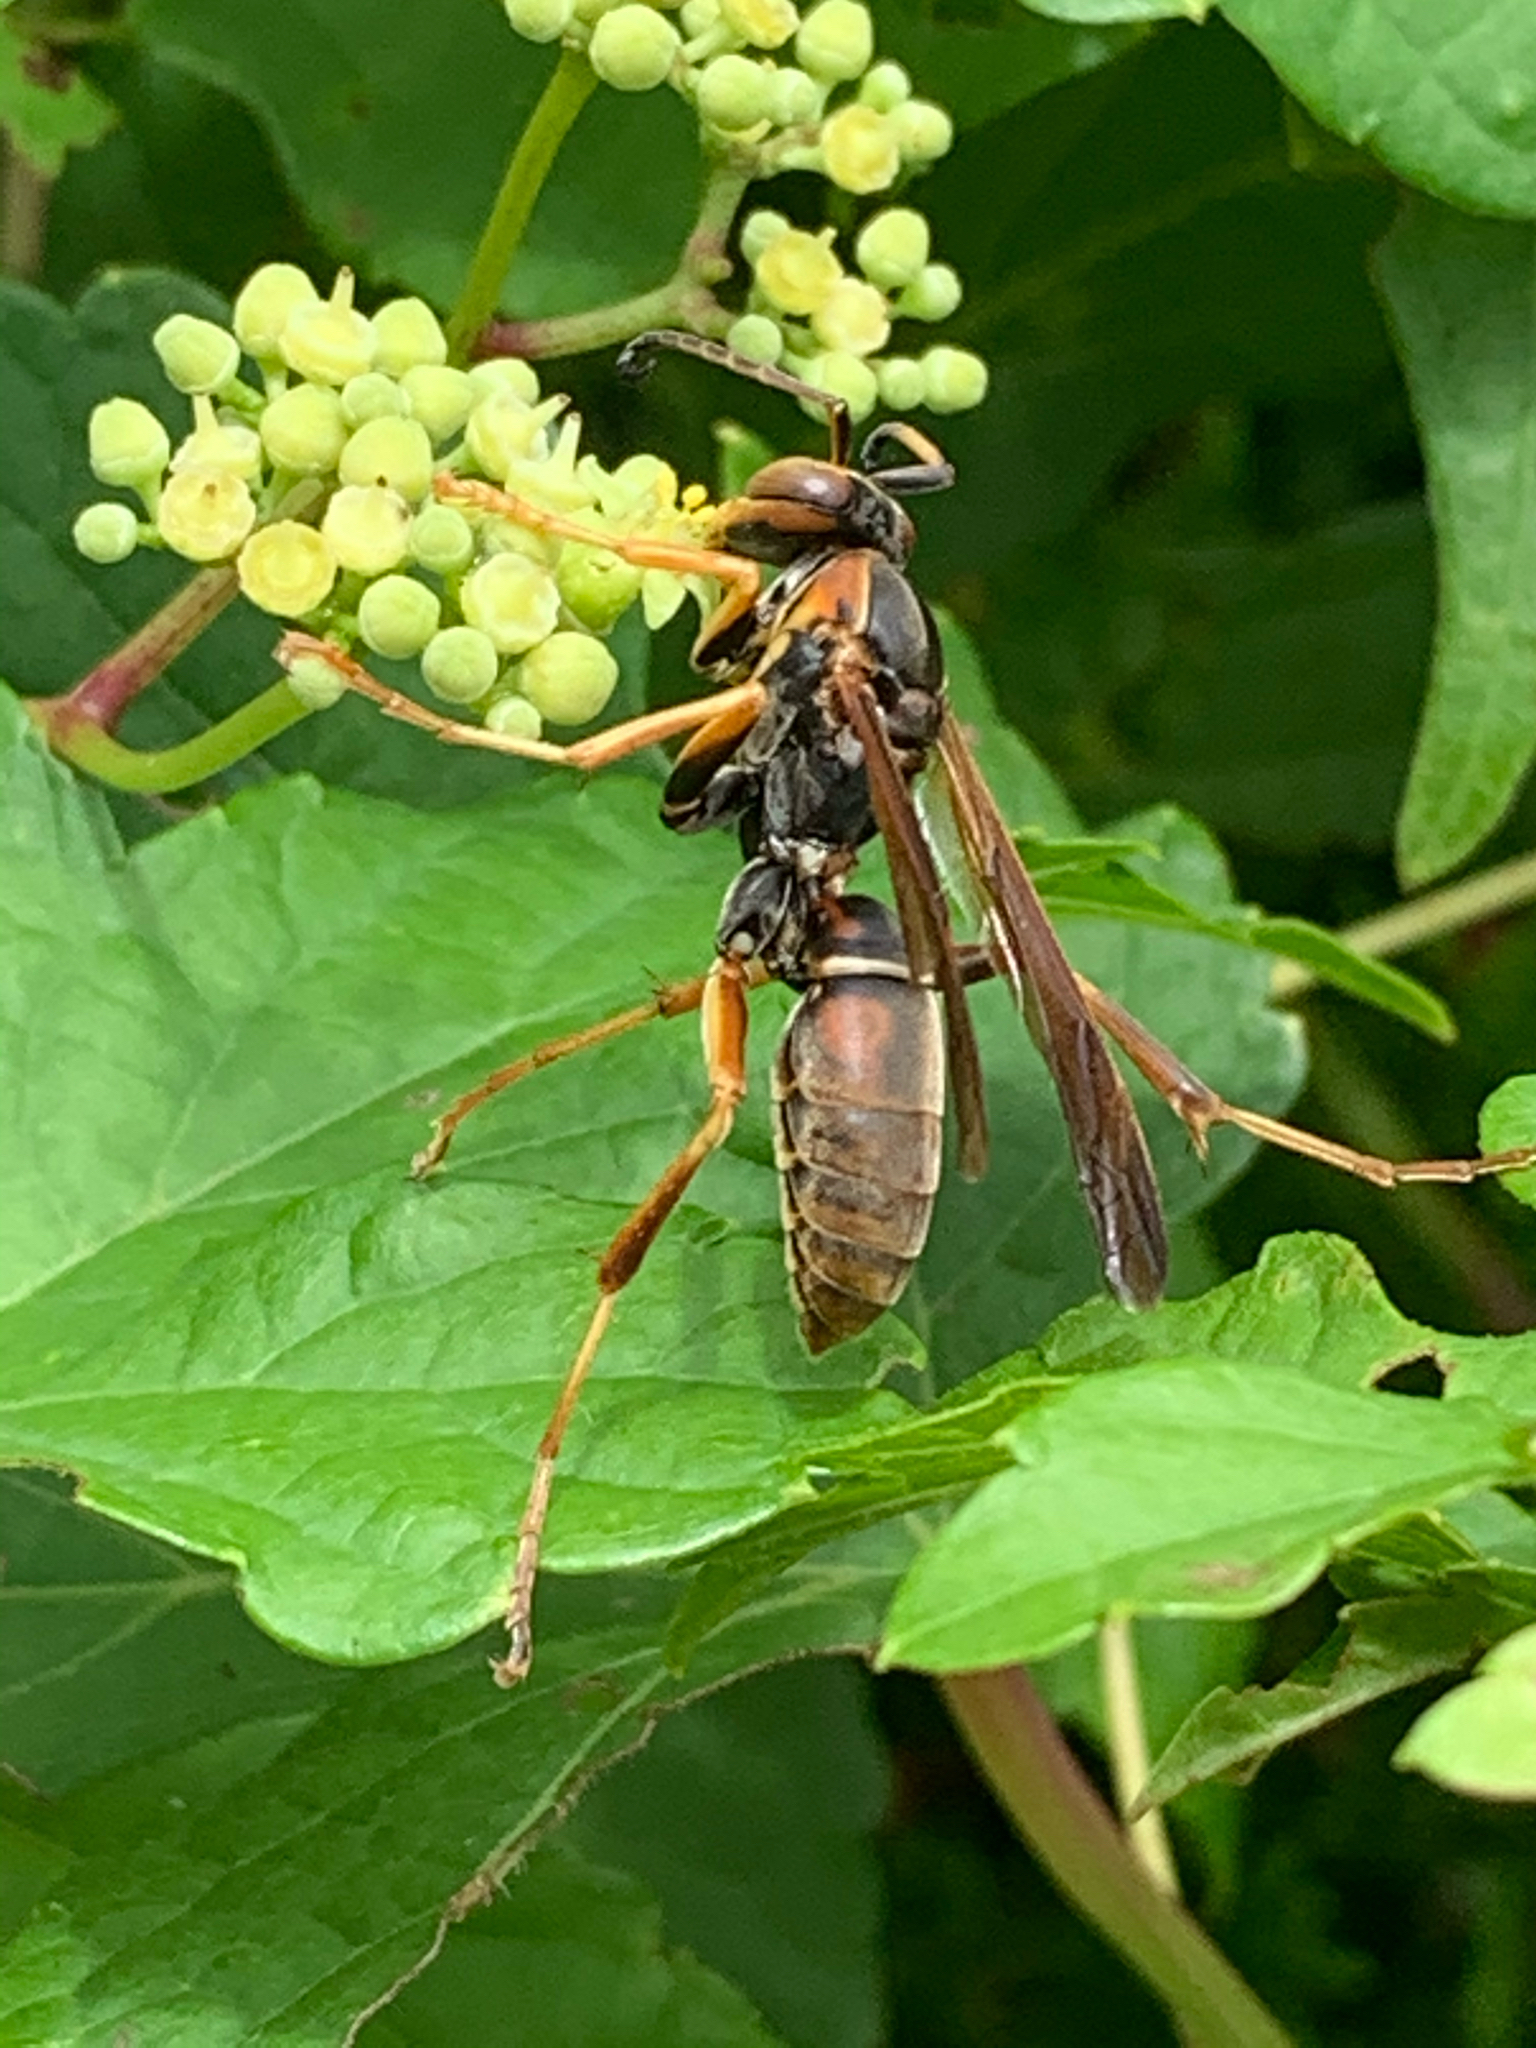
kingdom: Animalia
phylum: Arthropoda
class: Insecta
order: Hymenoptera
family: Eumenidae
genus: Polistes
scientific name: Polistes fuscatus
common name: Dark paper wasp
